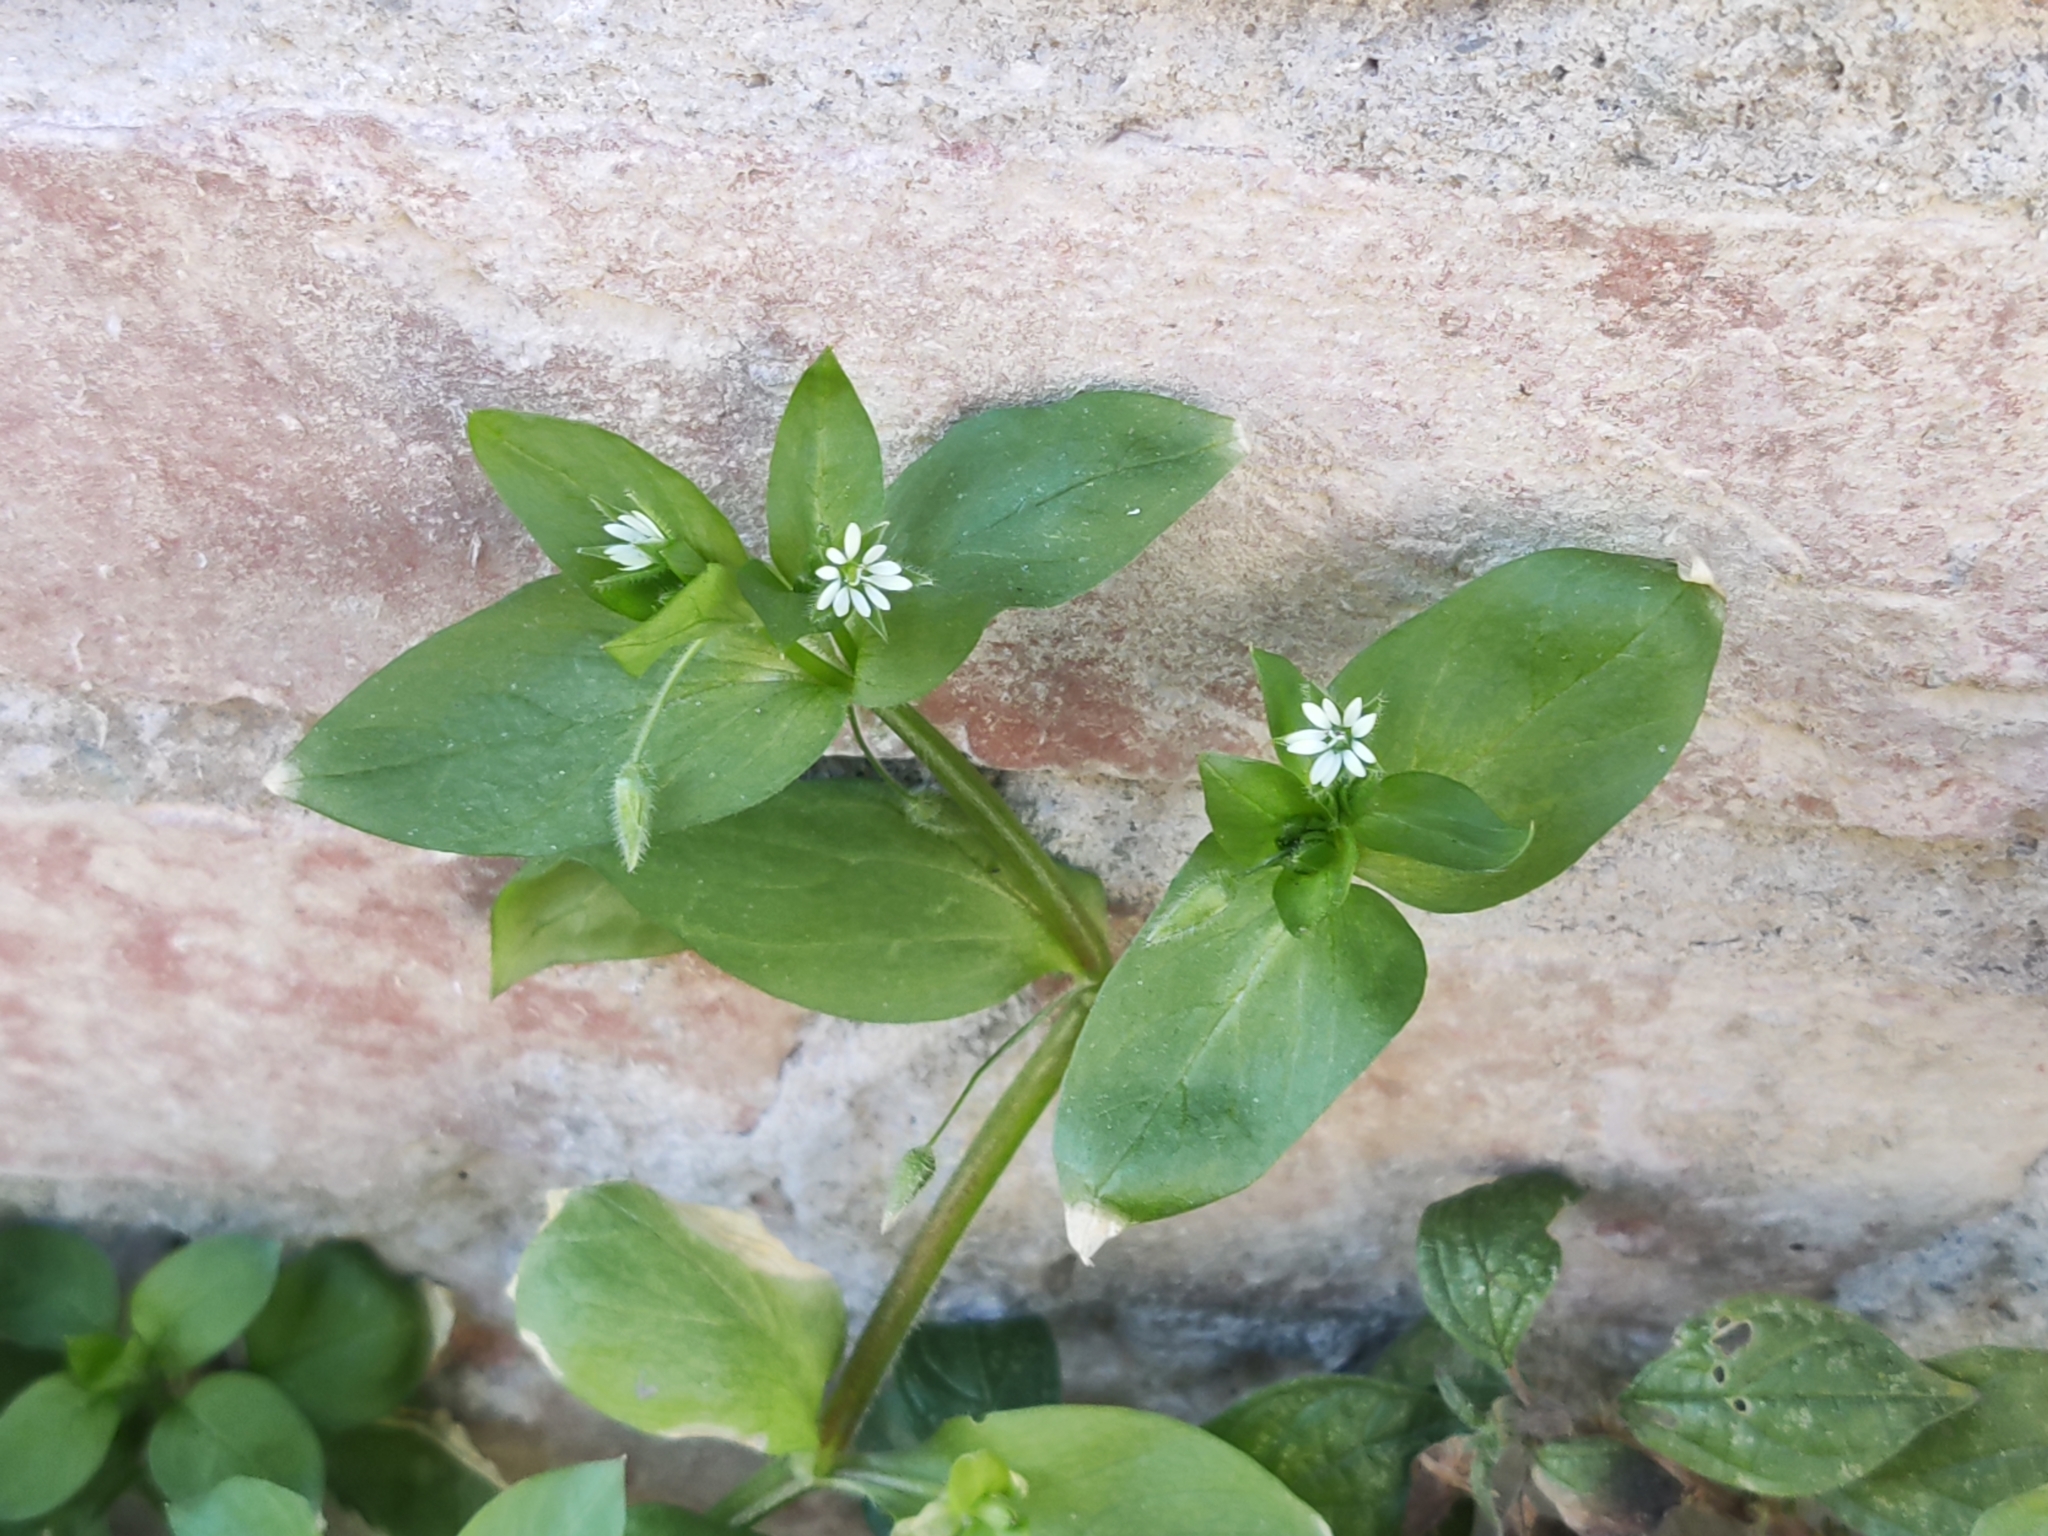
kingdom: Plantae
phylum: Tracheophyta
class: Magnoliopsida
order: Caryophyllales
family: Caryophyllaceae
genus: Stellaria
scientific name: Stellaria media
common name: Common chickweed
